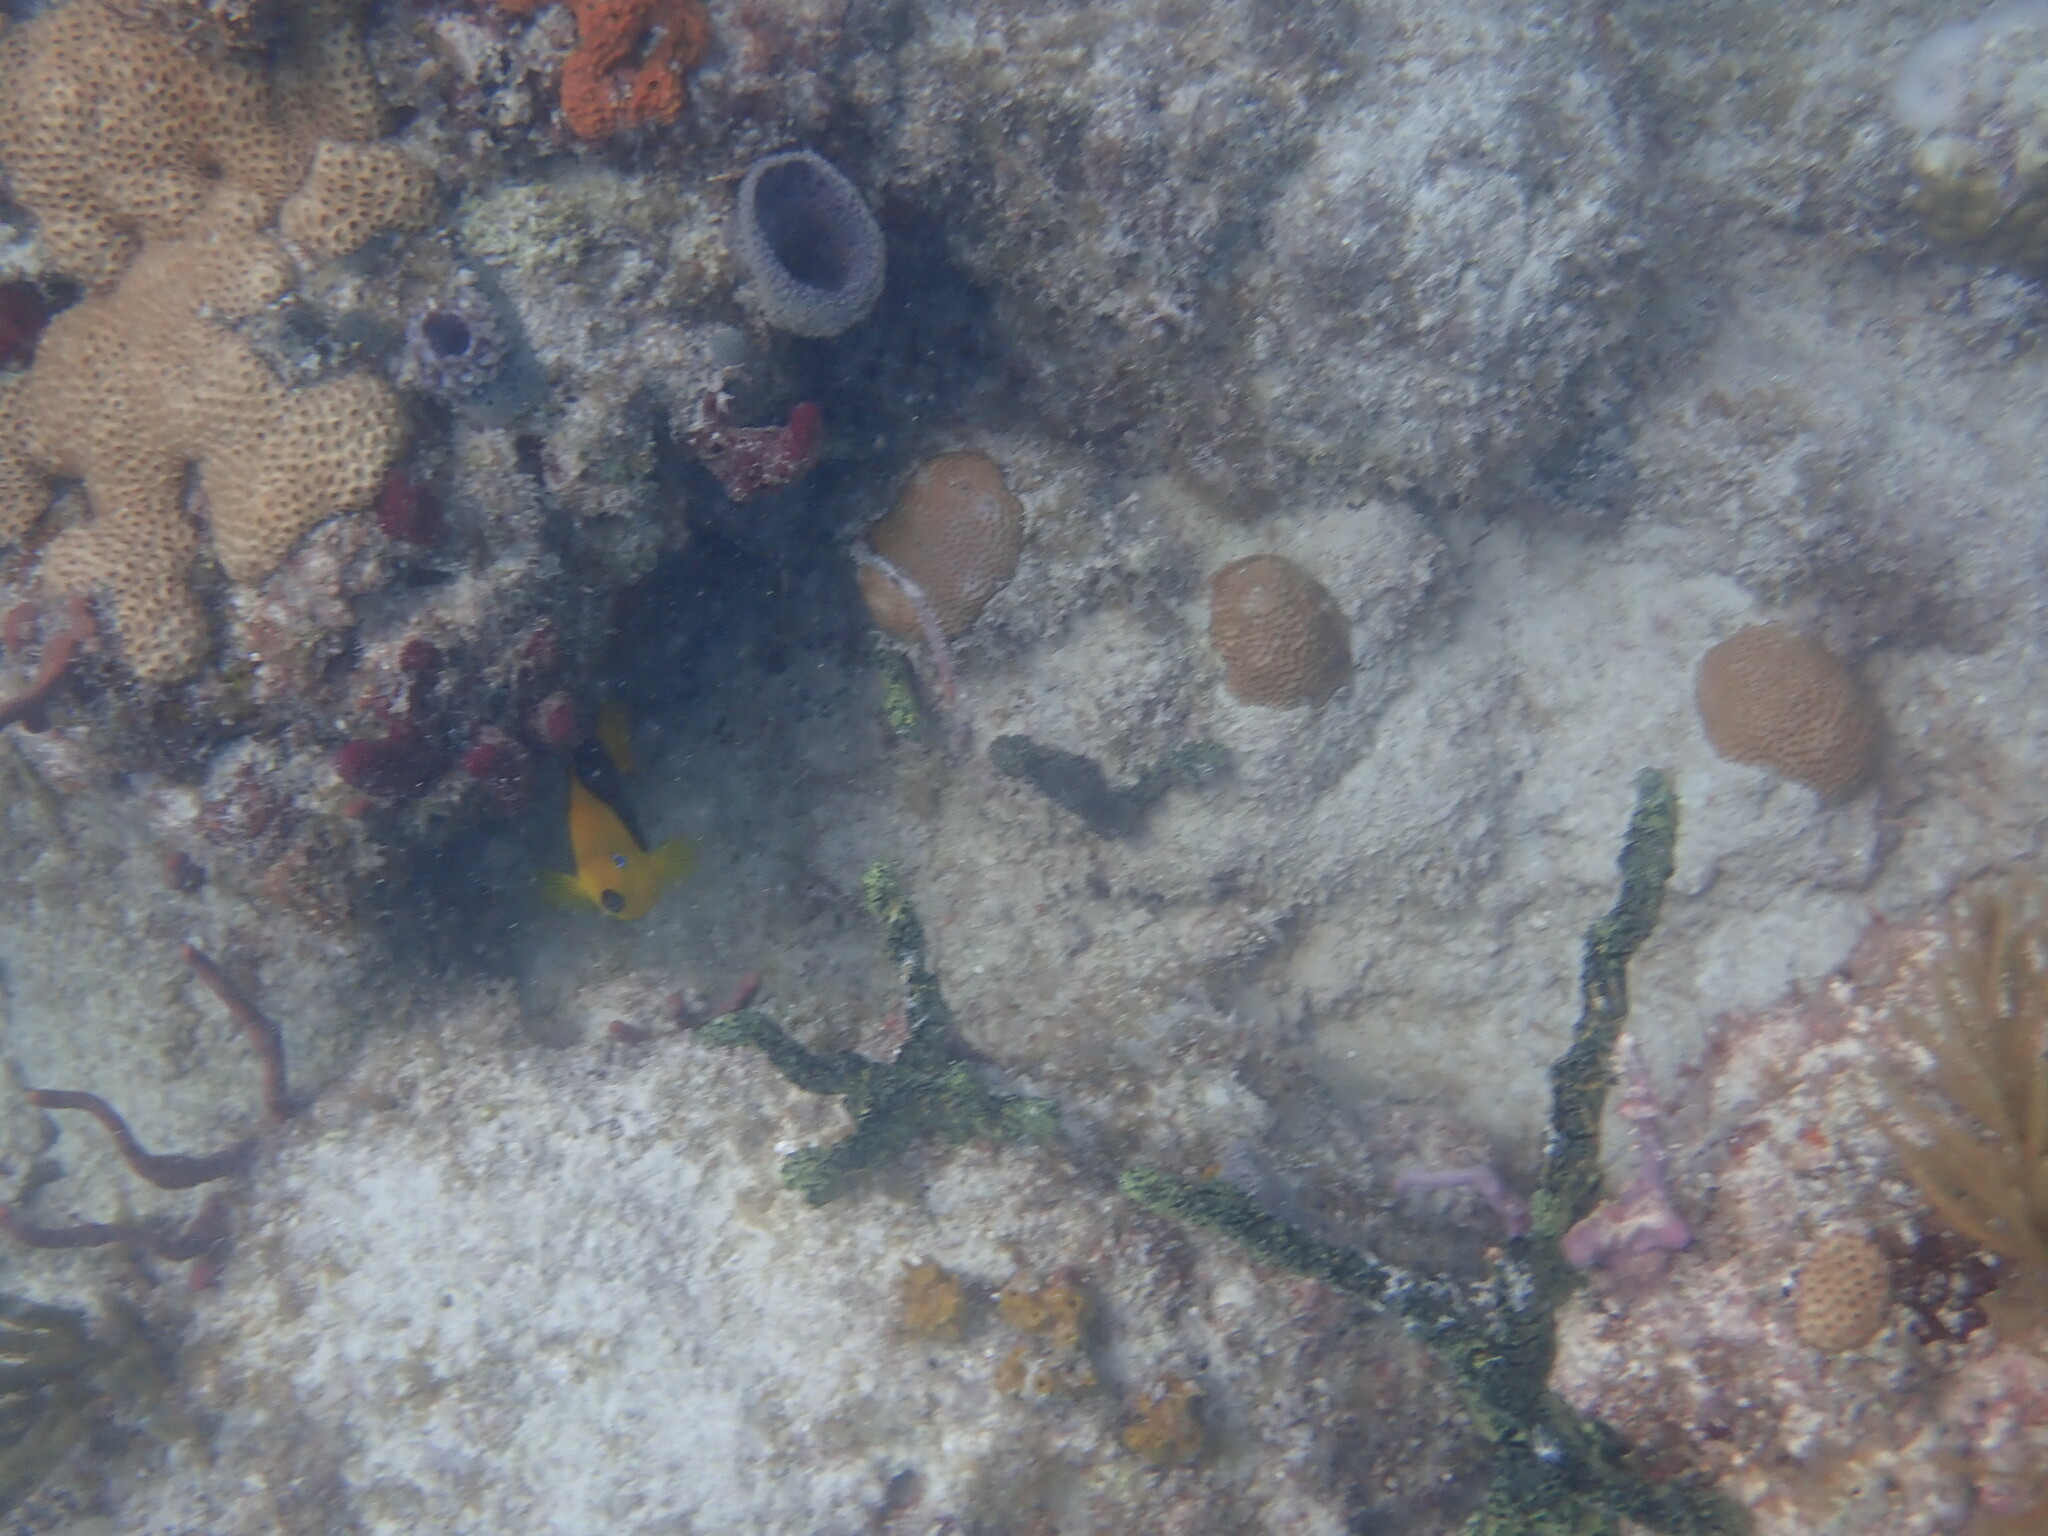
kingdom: Animalia
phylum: Chordata
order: Perciformes
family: Pomacanthidae
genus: Holacanthus
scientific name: Holacanthus tricolor
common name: Rock beauty
